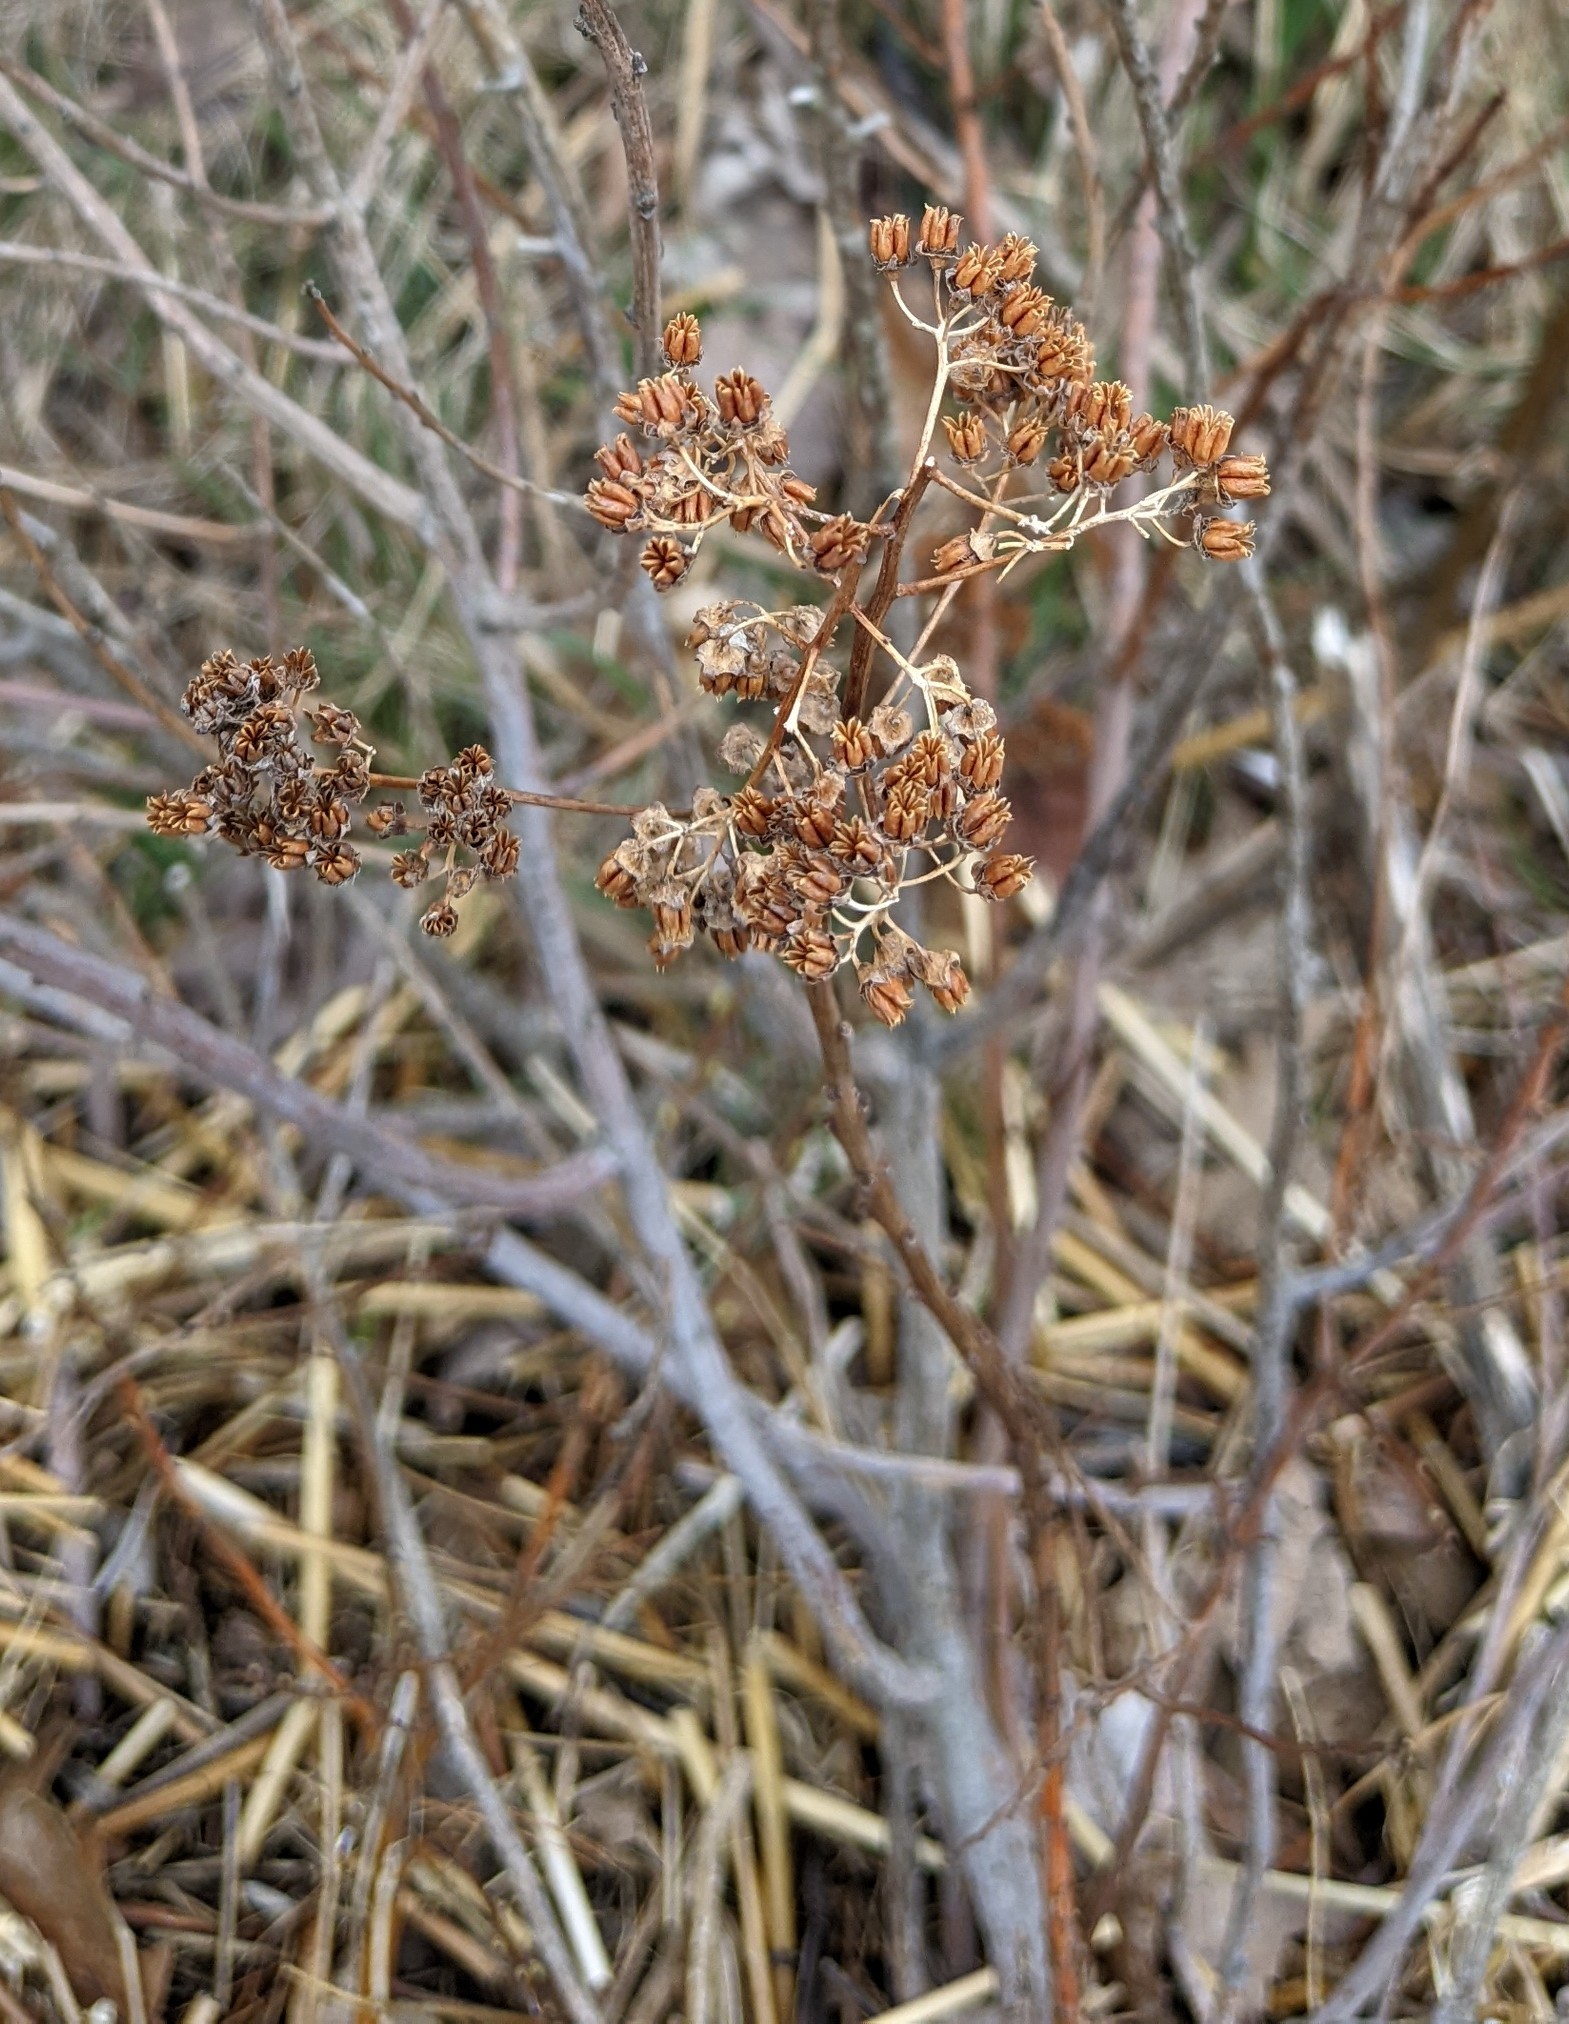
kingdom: Plantae
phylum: Tracheophyta
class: Magnoliopsida
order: Rosales
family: Rosaceae
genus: Spiraea
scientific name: Spiraea alba
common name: Pale bridewort
